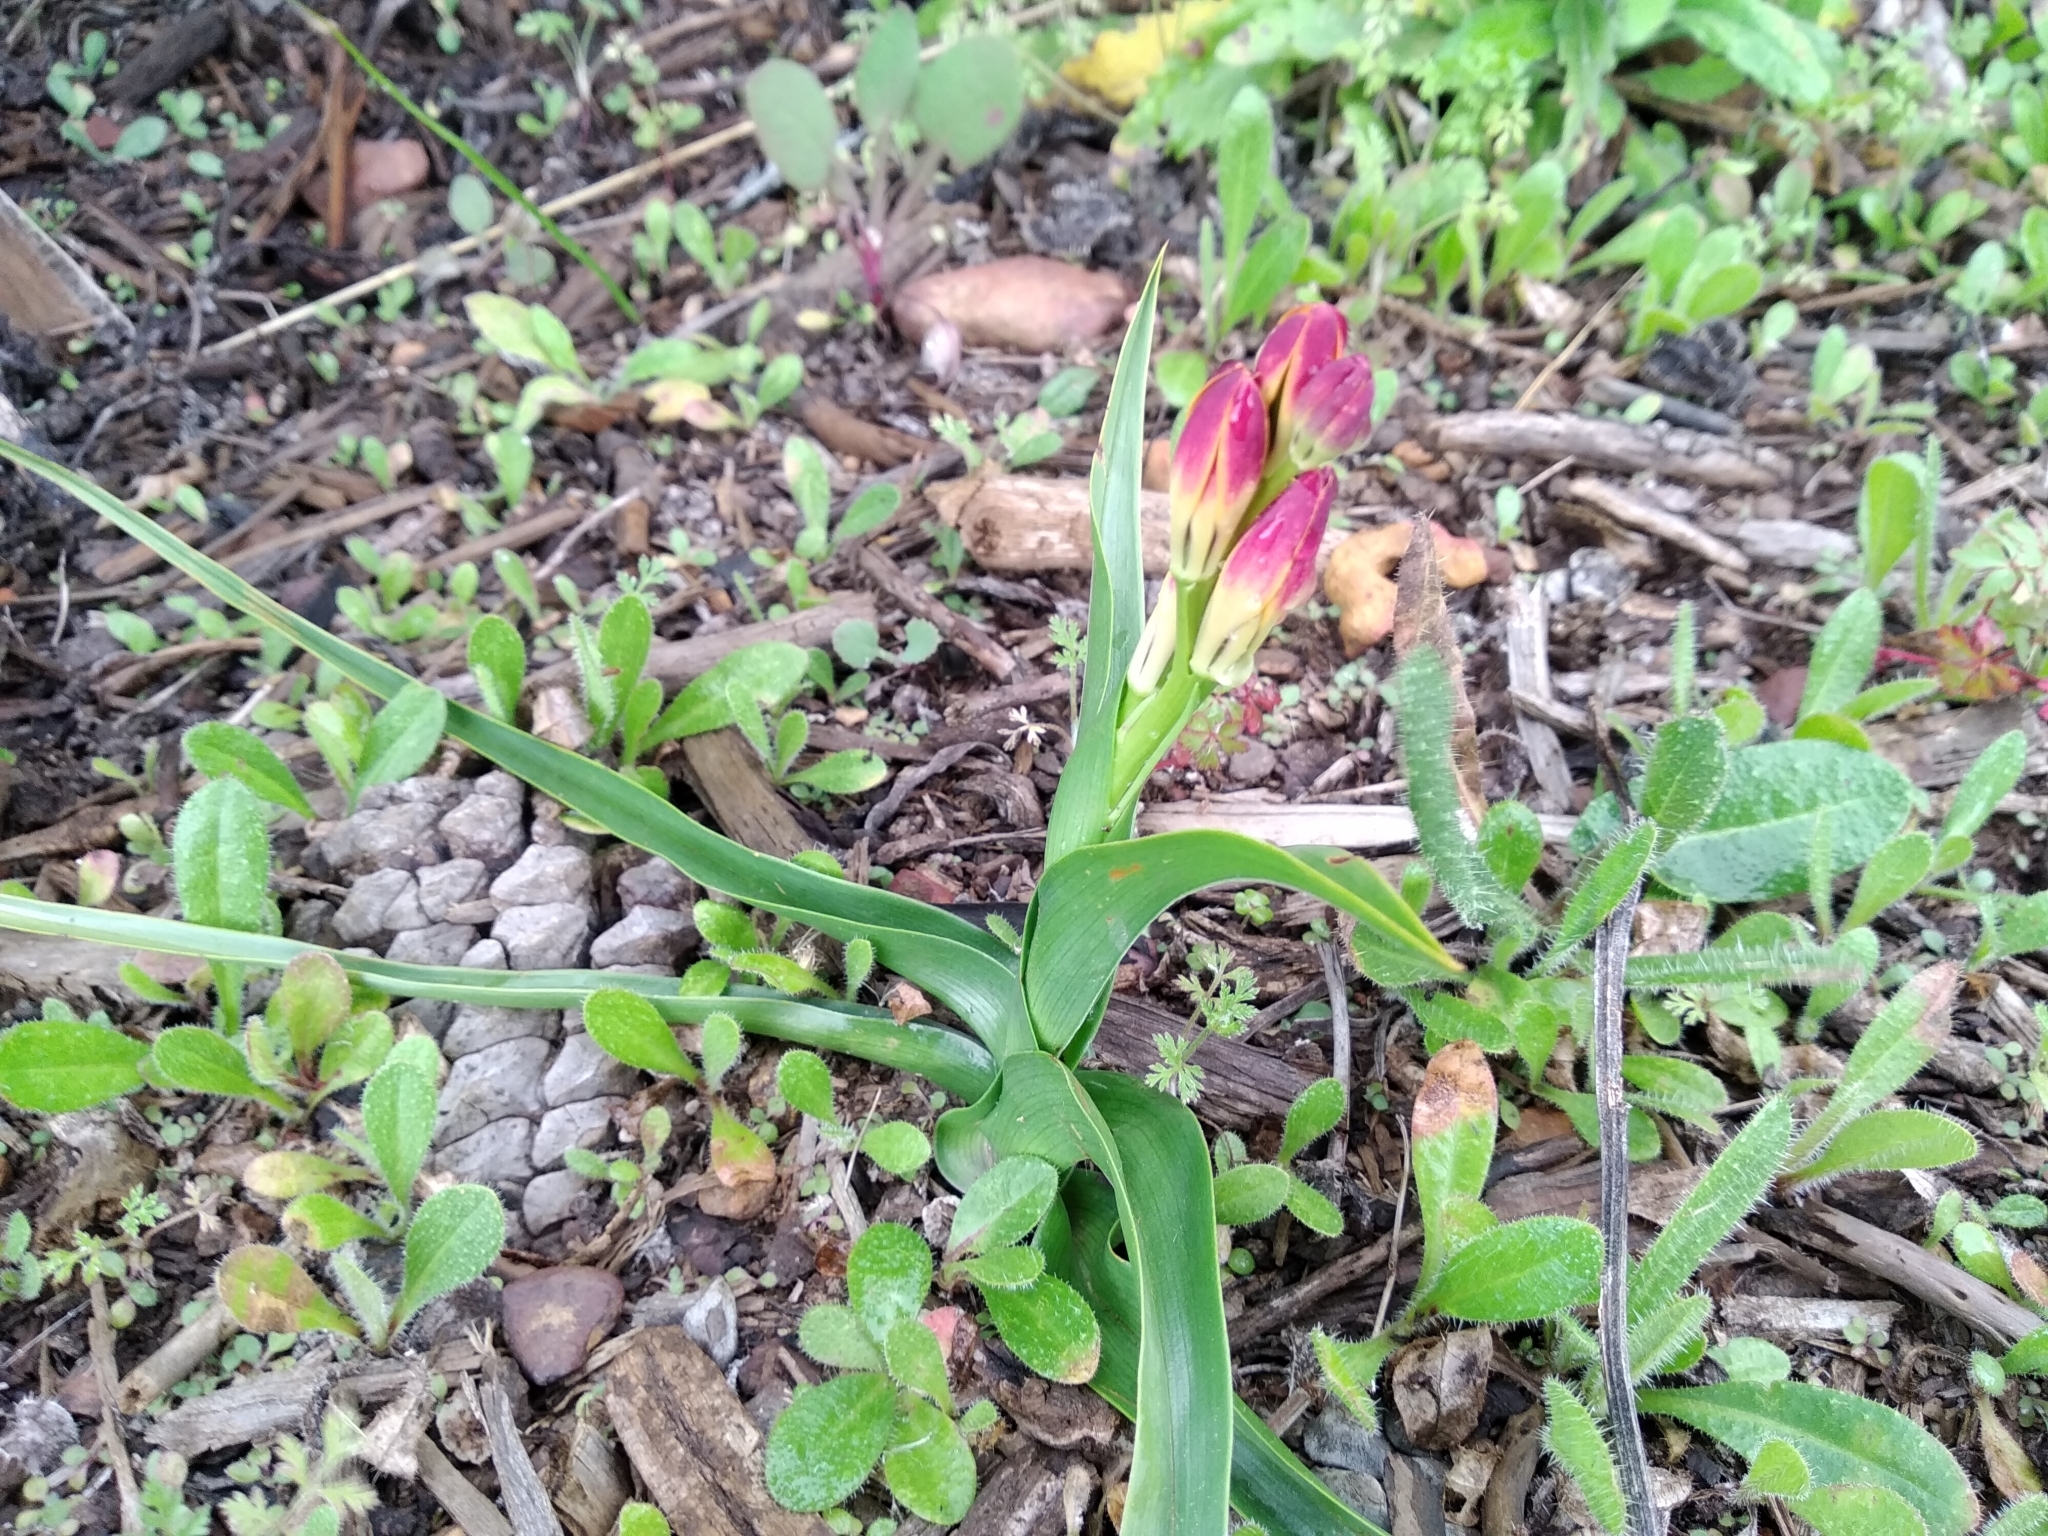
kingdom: Plantae
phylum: Tracheophyta
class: Liliopsida
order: Liliales
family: Colchicaceae
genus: Baeometra
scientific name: Baeometra uniflora
